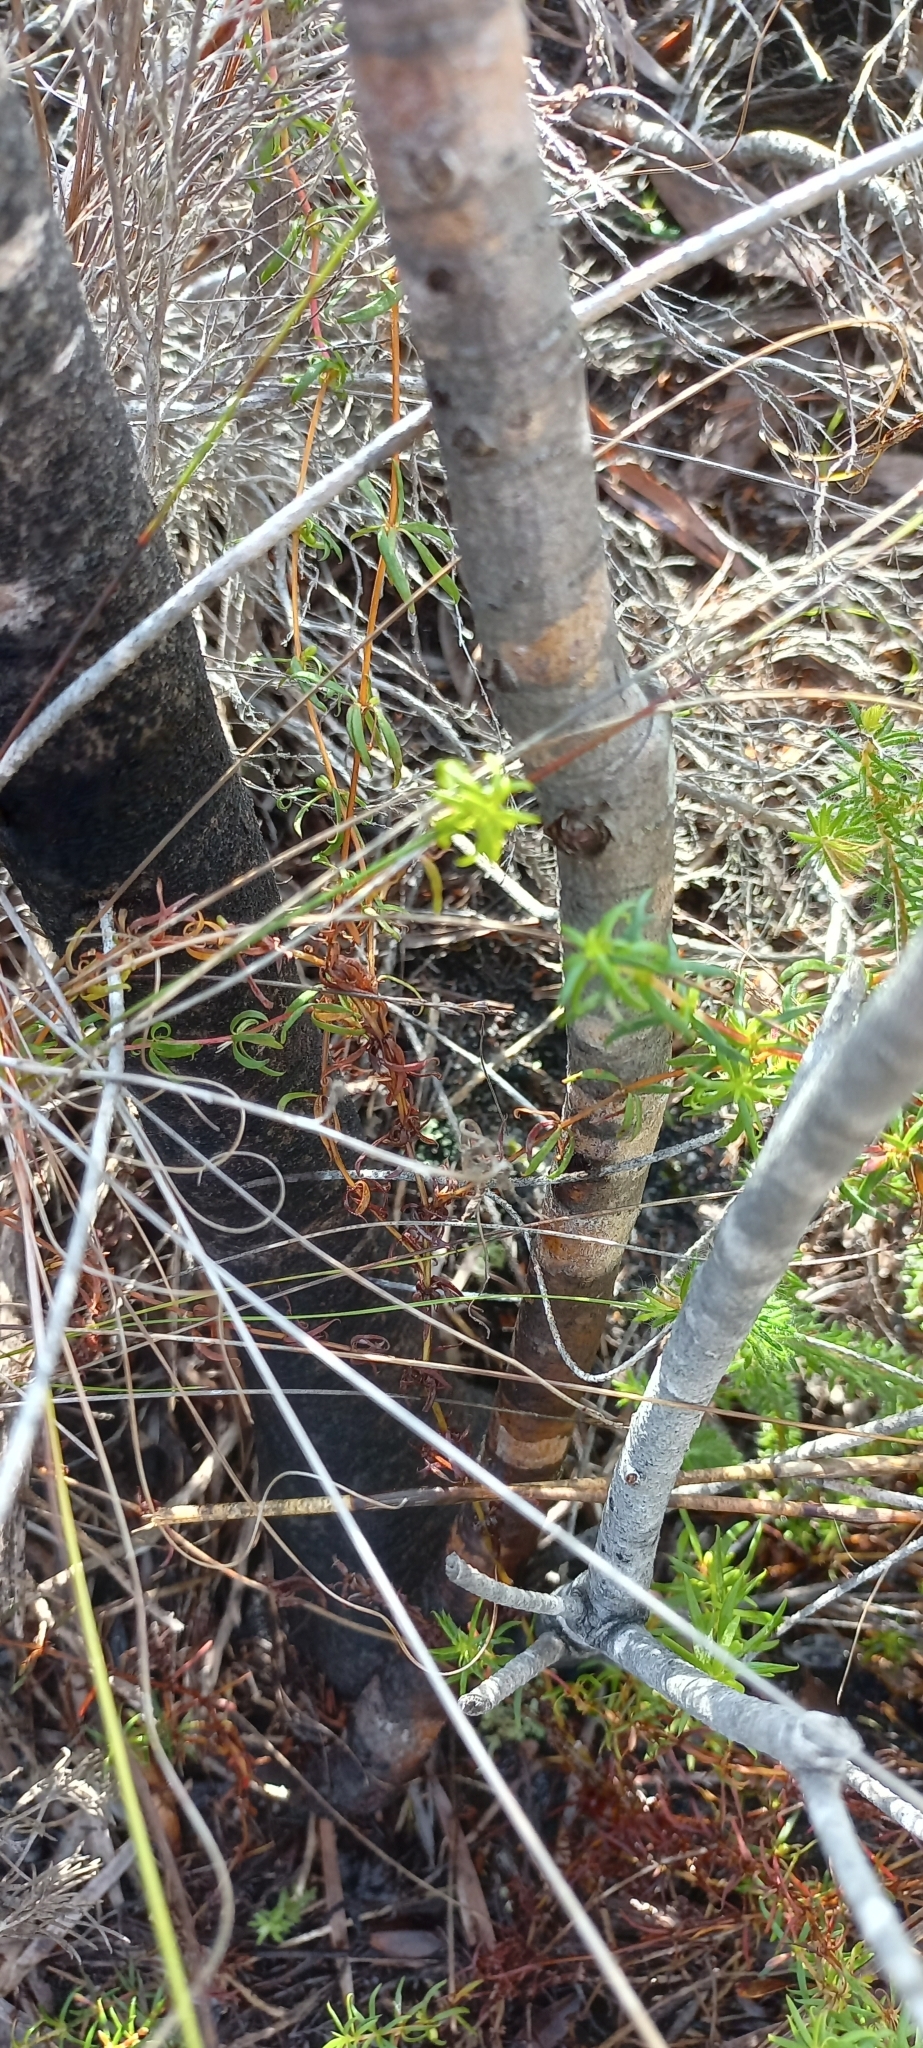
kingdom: Plantae
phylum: Tracheophyta
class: Magnoliopsida
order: Proteales
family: Proteaceae
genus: Leucadendron
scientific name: Leucadendron gandogeri
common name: Broad-leaf conebush
